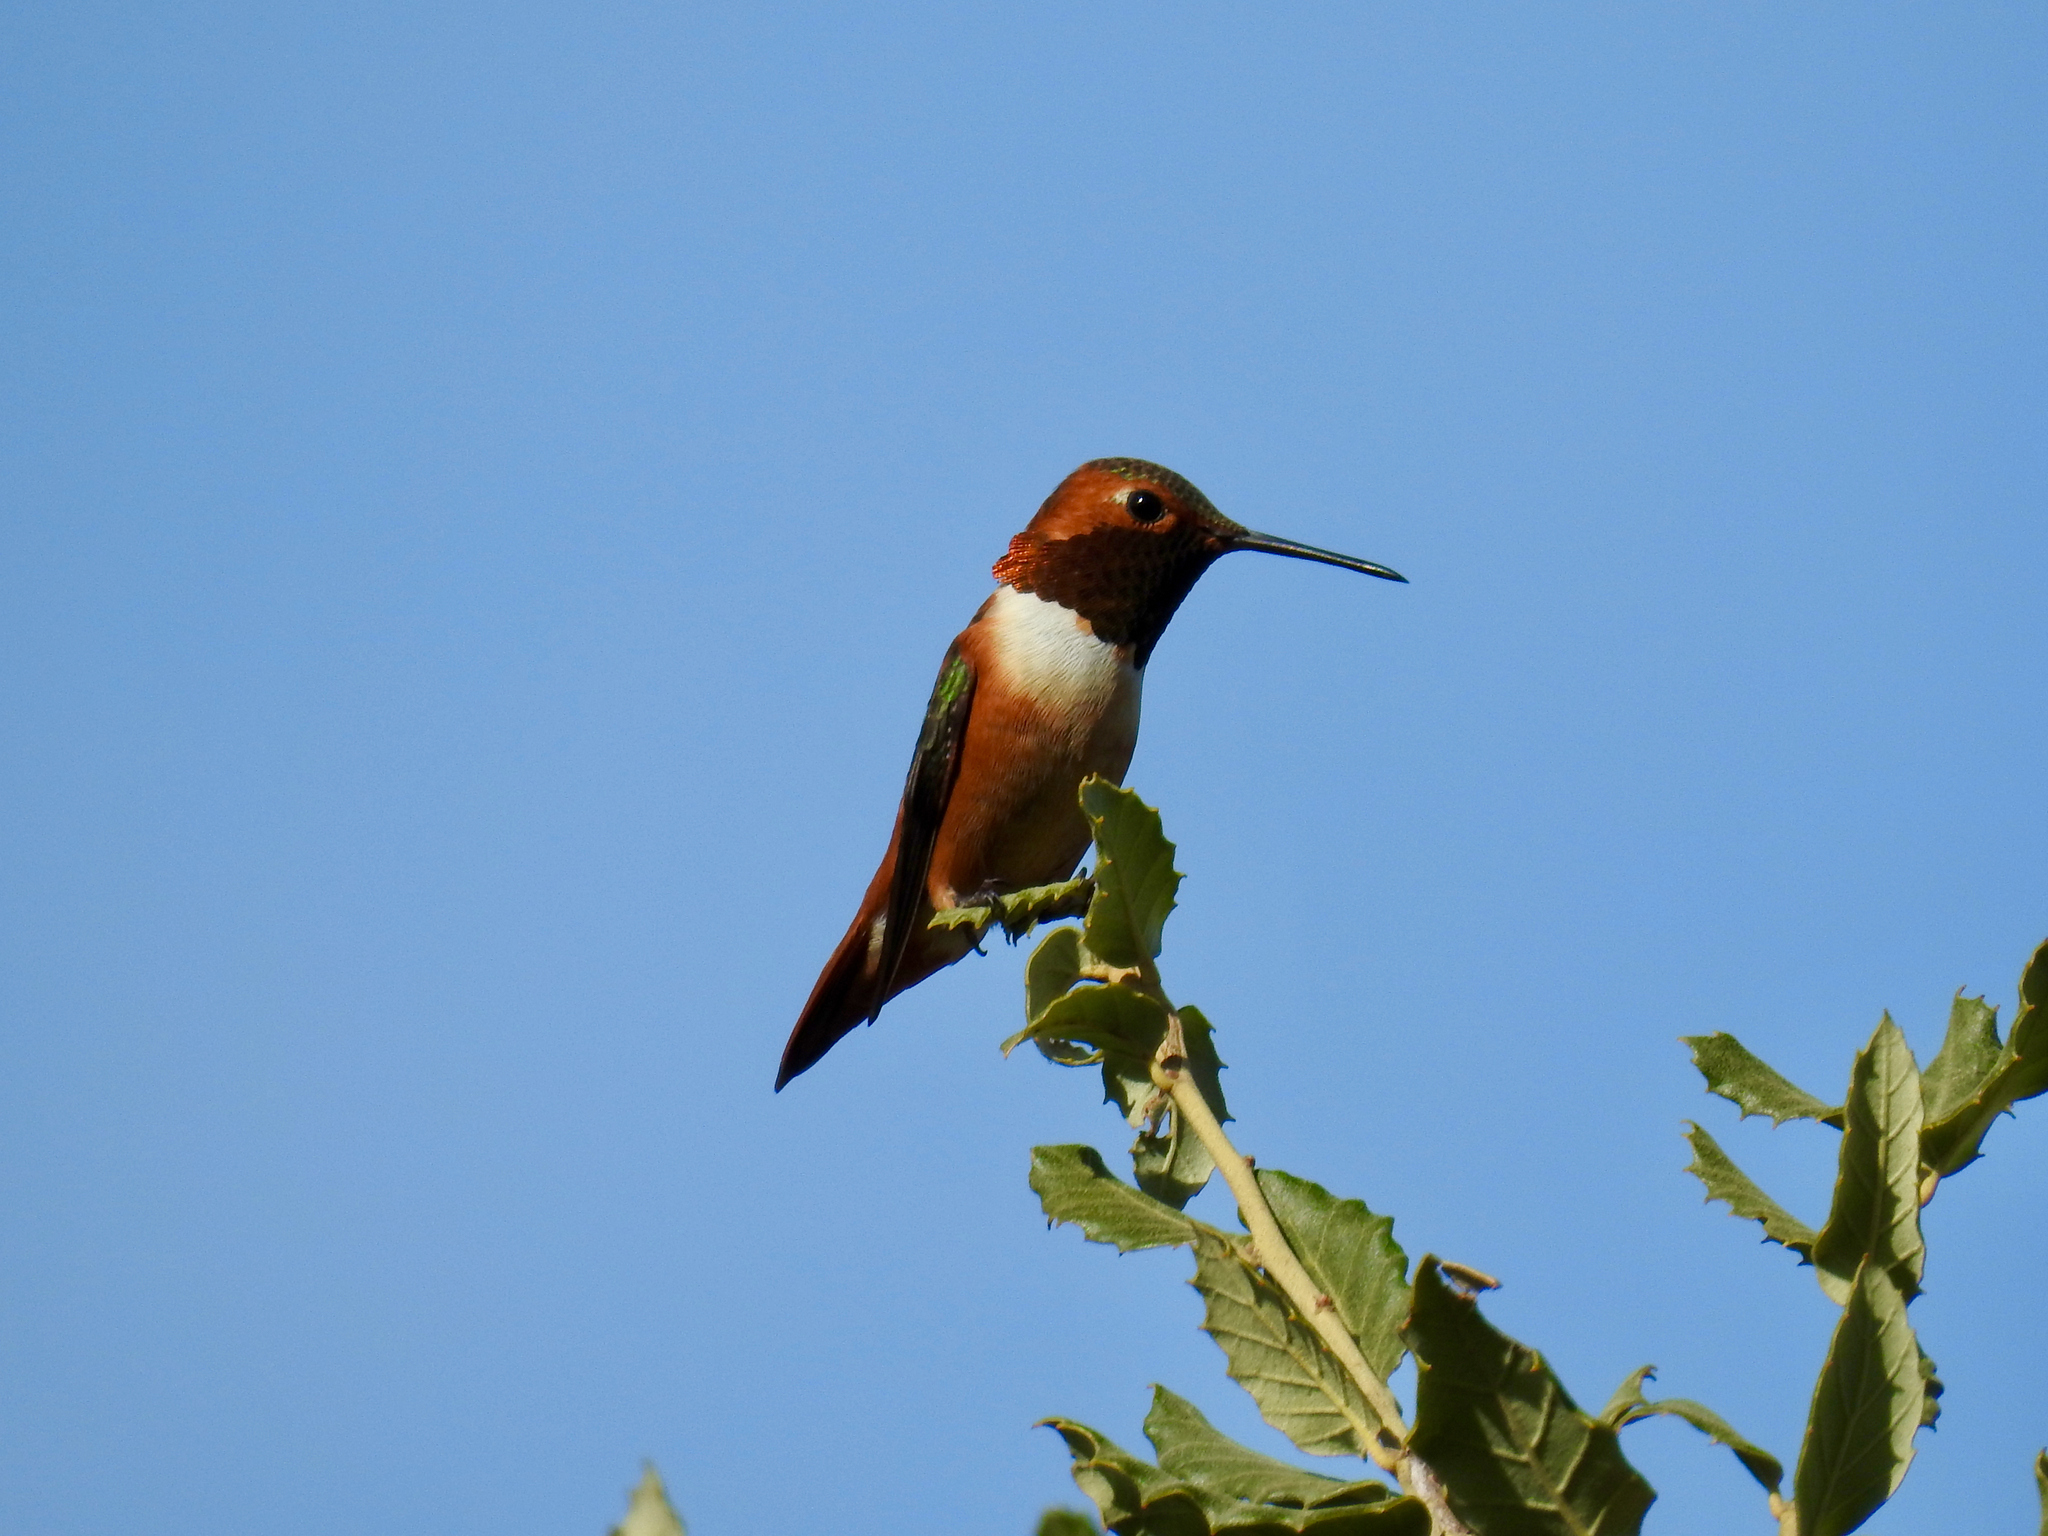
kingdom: Animalia
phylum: Chordata
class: Aves
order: Apodiformes
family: Trochilidae
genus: Selasphorus
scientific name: Selasphorus sasin
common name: Allen's hummingbird
